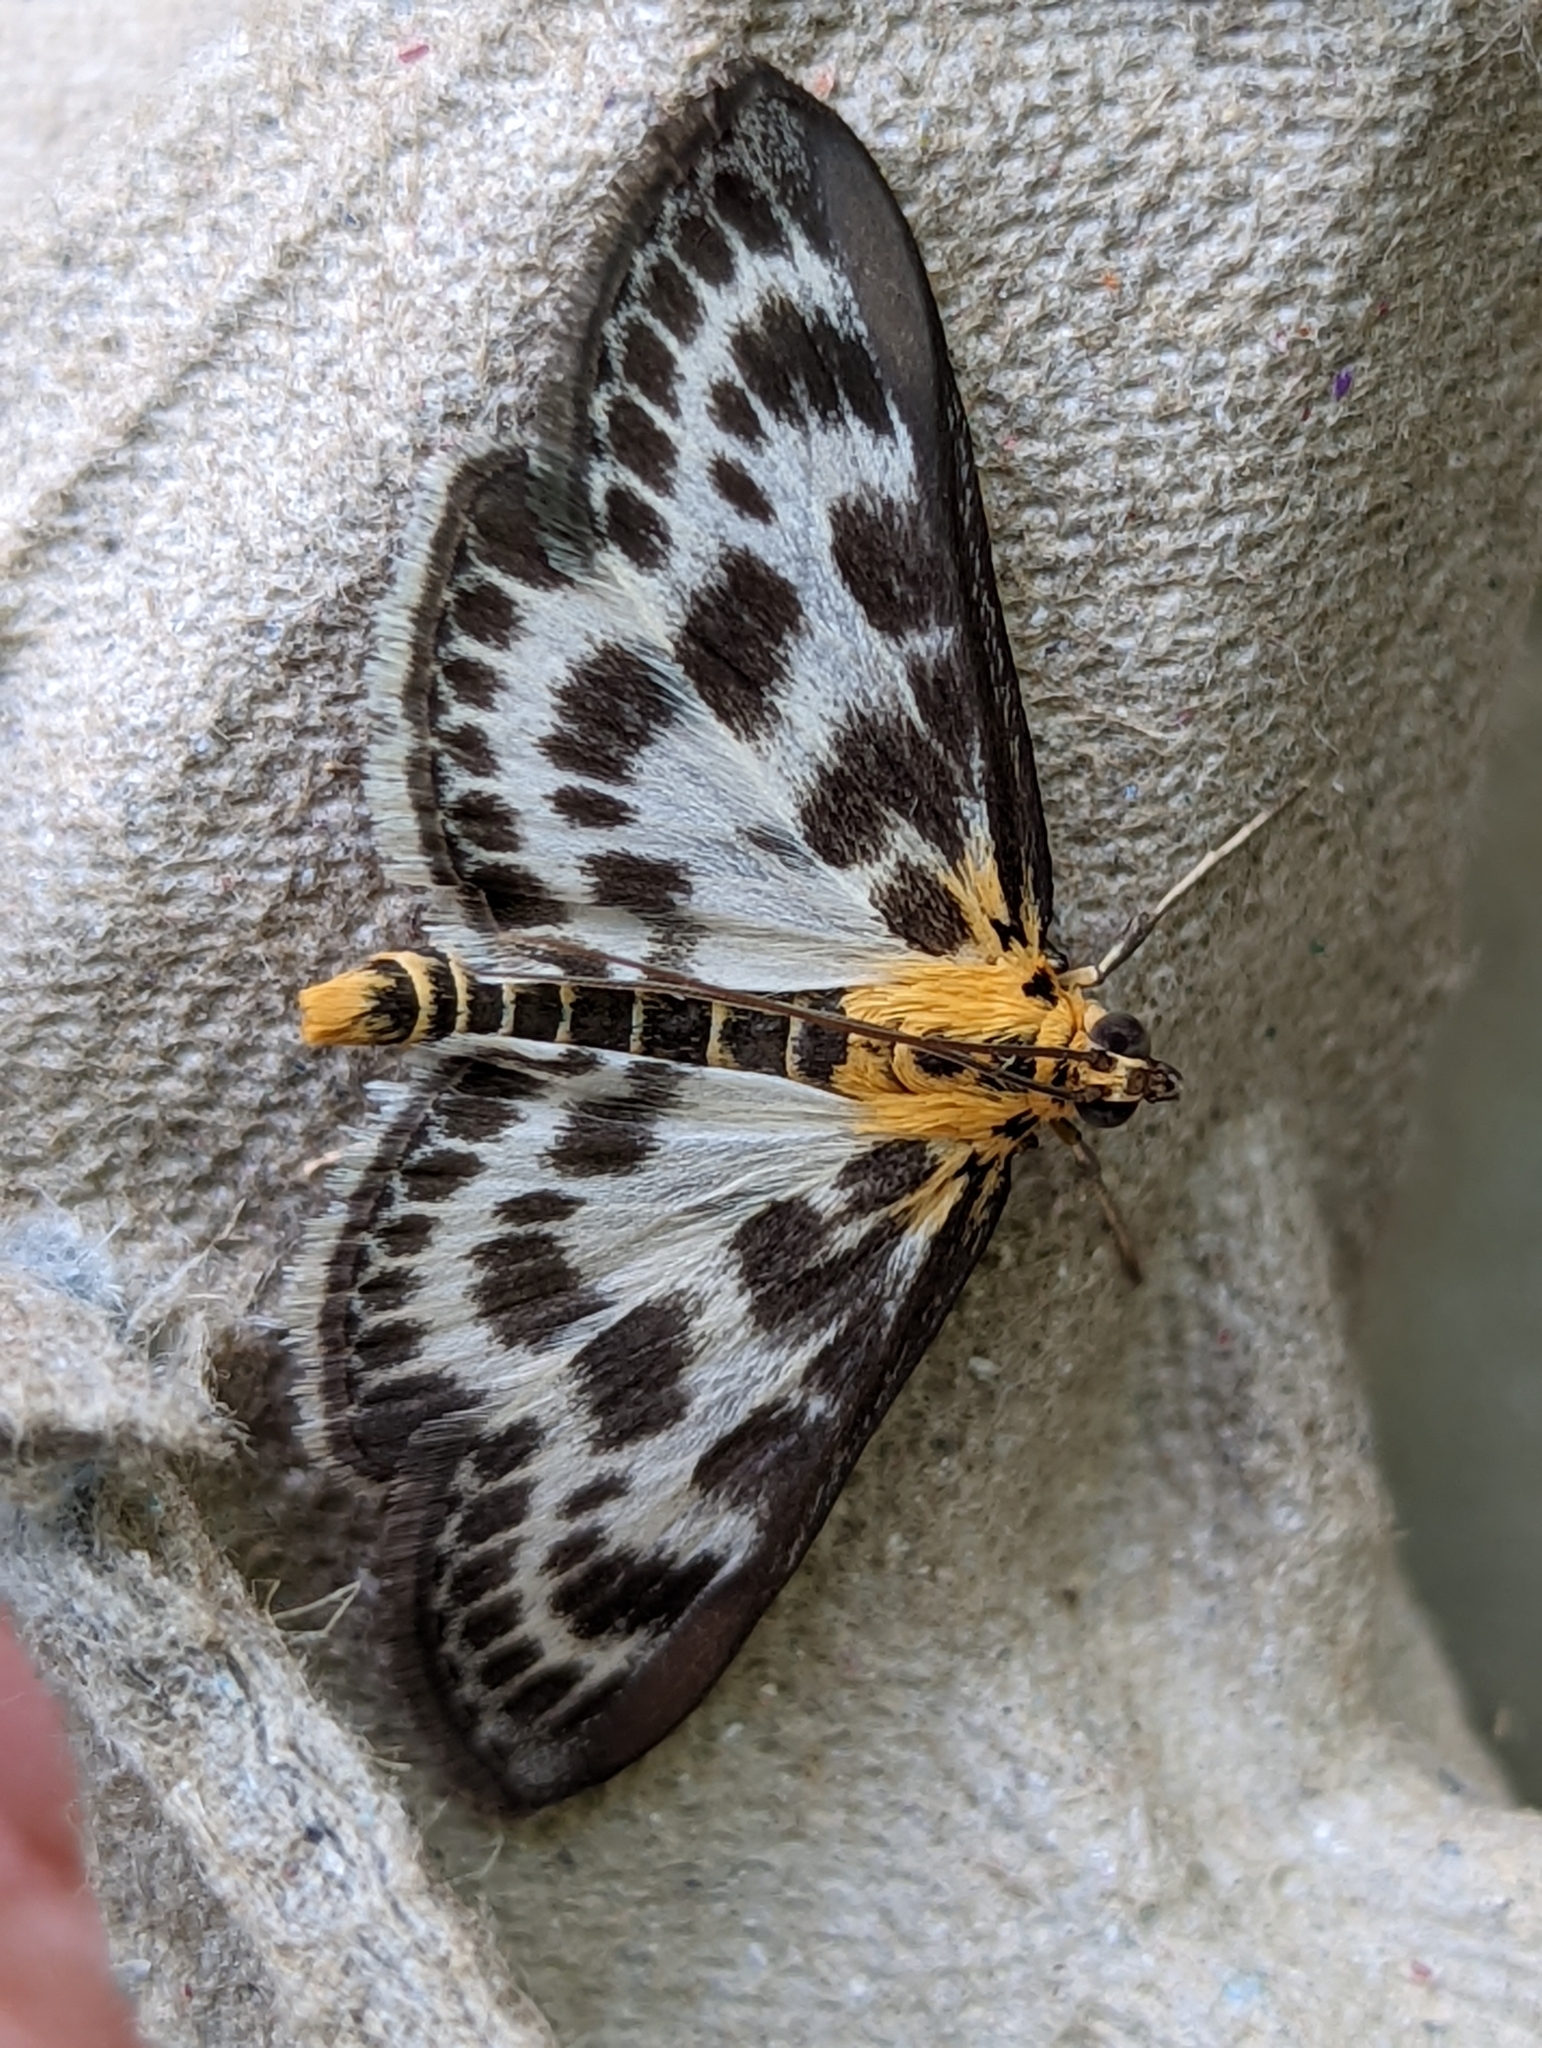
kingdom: Animalia
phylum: Arthropoda
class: Insecta
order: Lepidoptera
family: Crambidae
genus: Anania
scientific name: Anania hortulata
